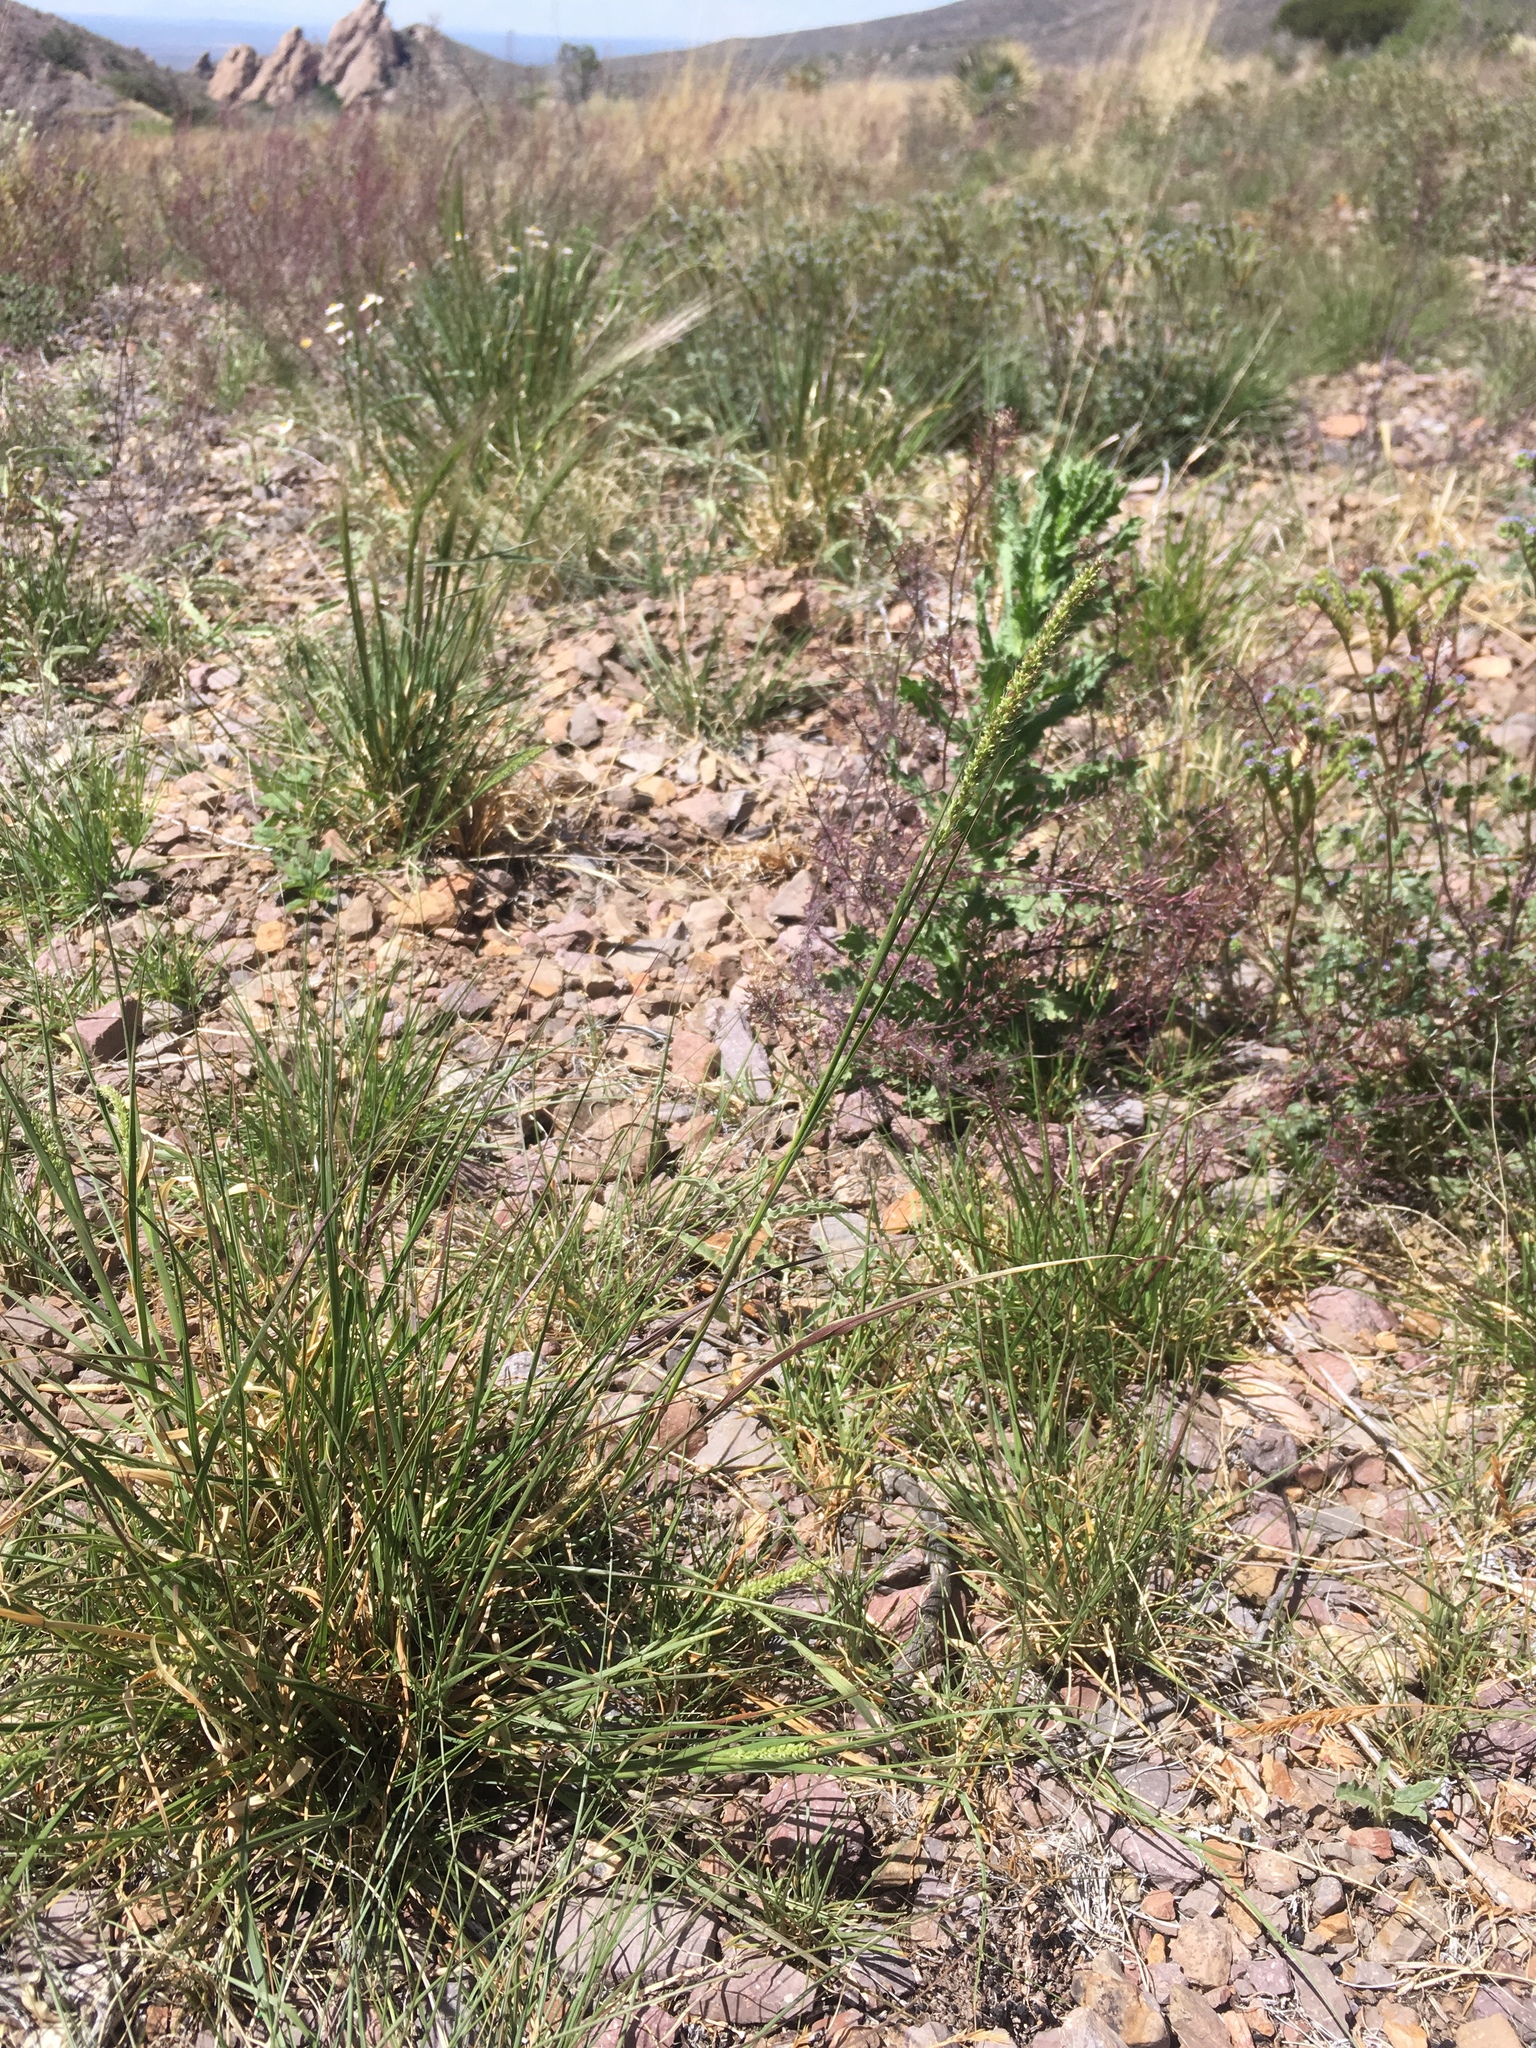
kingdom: Plantae
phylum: Tracheophyta
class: Liliopsida
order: Poales
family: Poaceae
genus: Setaria
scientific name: Setaria leucopila
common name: Plains bristle grass
